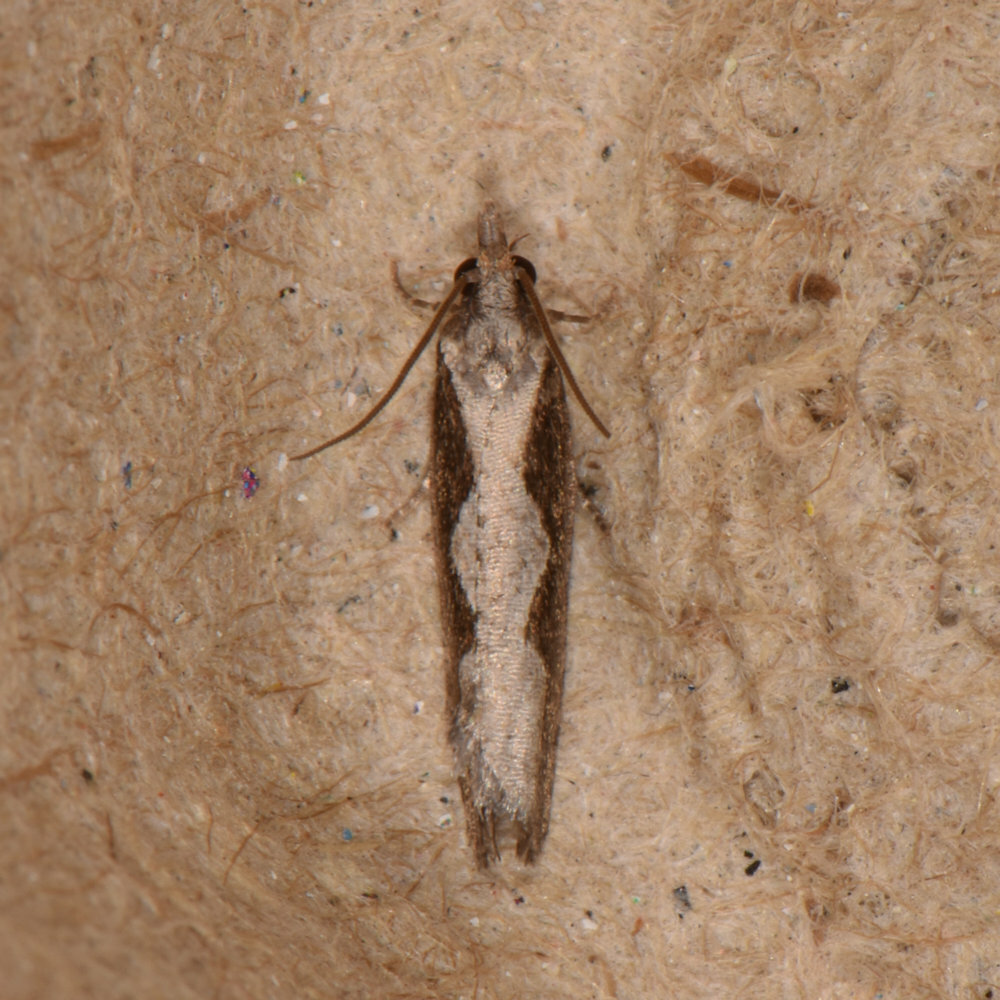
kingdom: Animalia
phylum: Arthropoda
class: Insecta
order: Lepidoptera
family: Tortricidae
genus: Epinotia
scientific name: Epinotia lindana
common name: Diamondback epinotia moth
